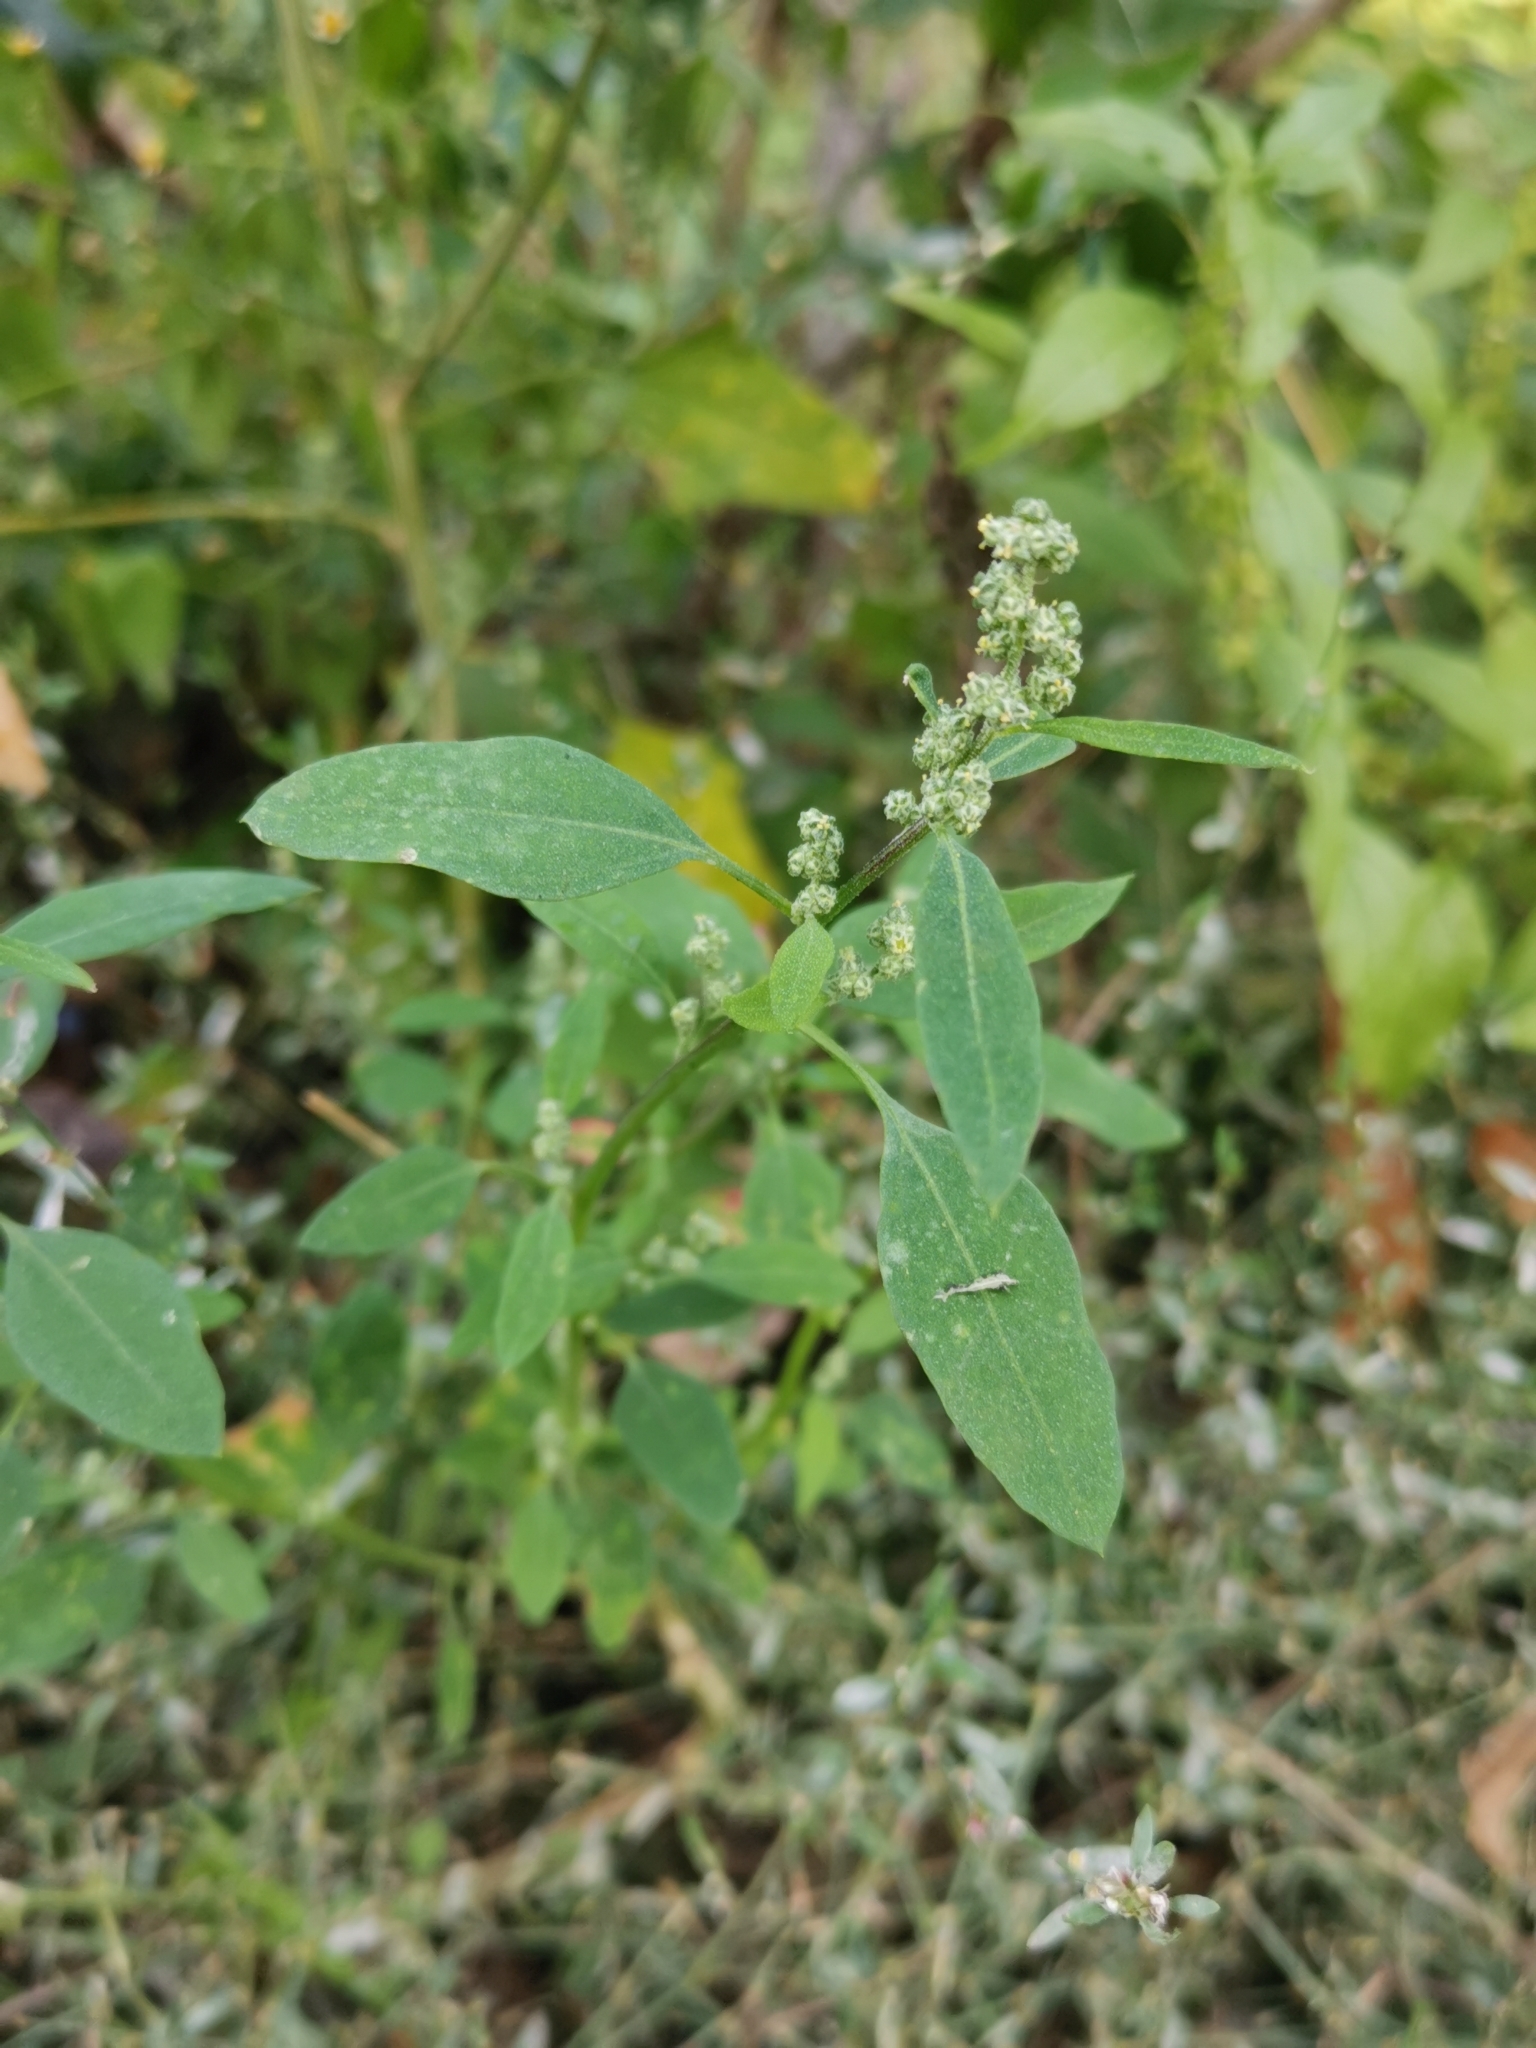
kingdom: Plantae
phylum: Tracheophyta
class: Magnoliopsida
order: Caryophyllales
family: Amaranthaceae
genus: Chenopodium
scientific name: Chenopodium album
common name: Fat-hen
